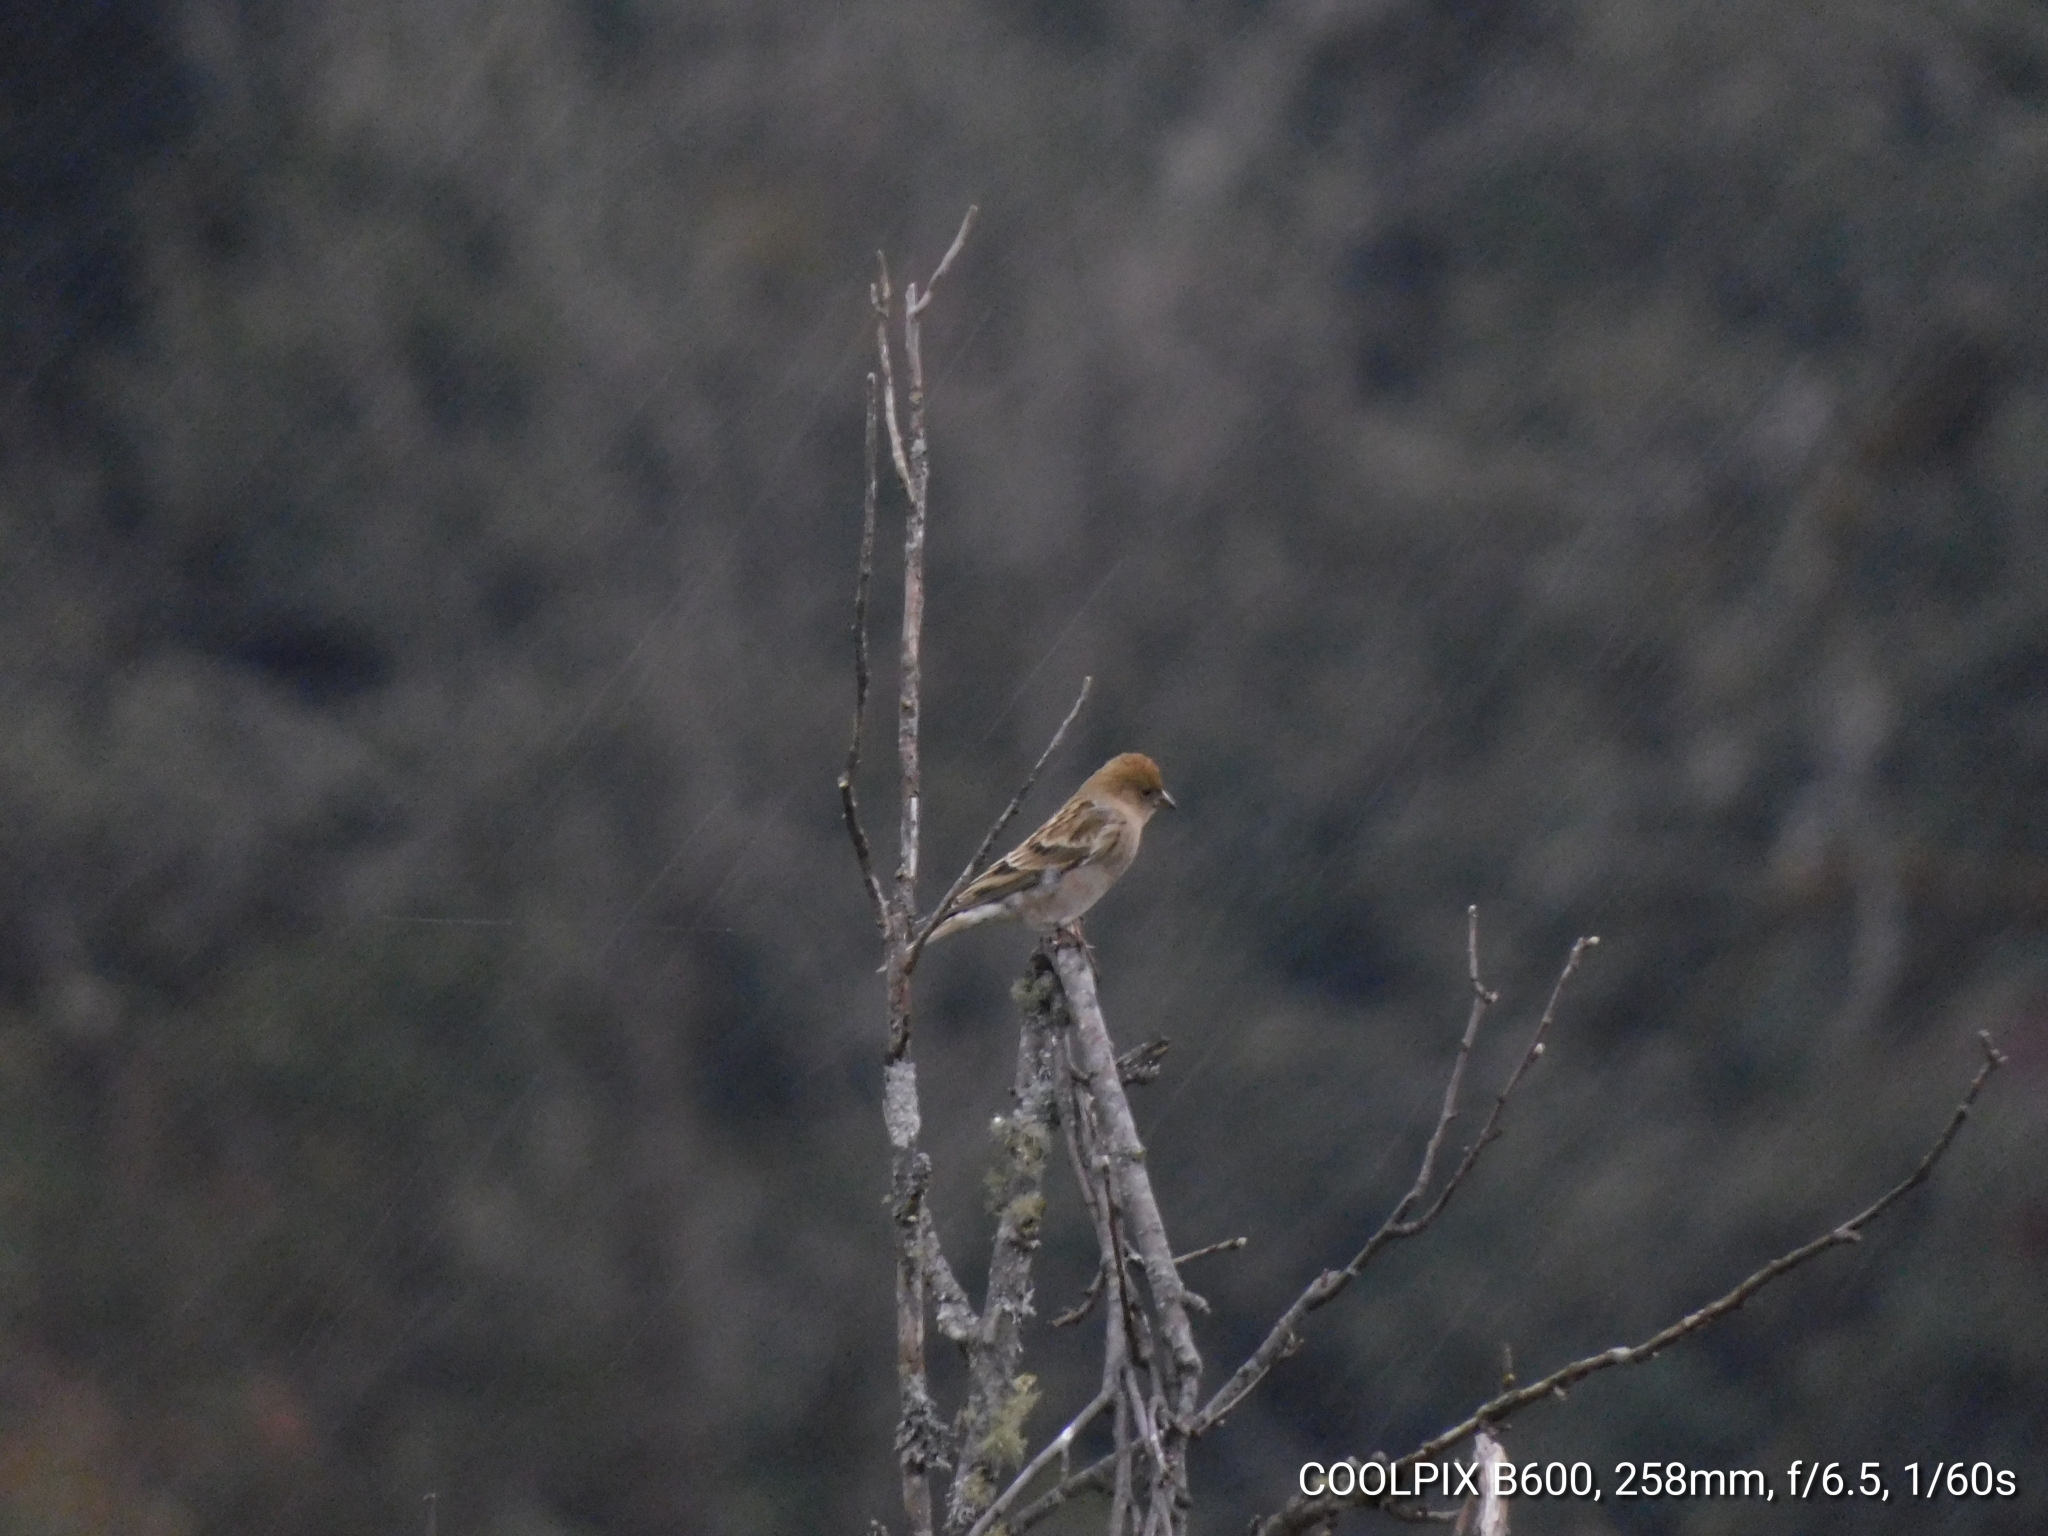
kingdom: Animalia
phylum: Chordata
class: Aves
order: Passeriformes
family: Fringillidae
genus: Leucosticte
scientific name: Leucosticte nemoricola
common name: Plain mountain finch
